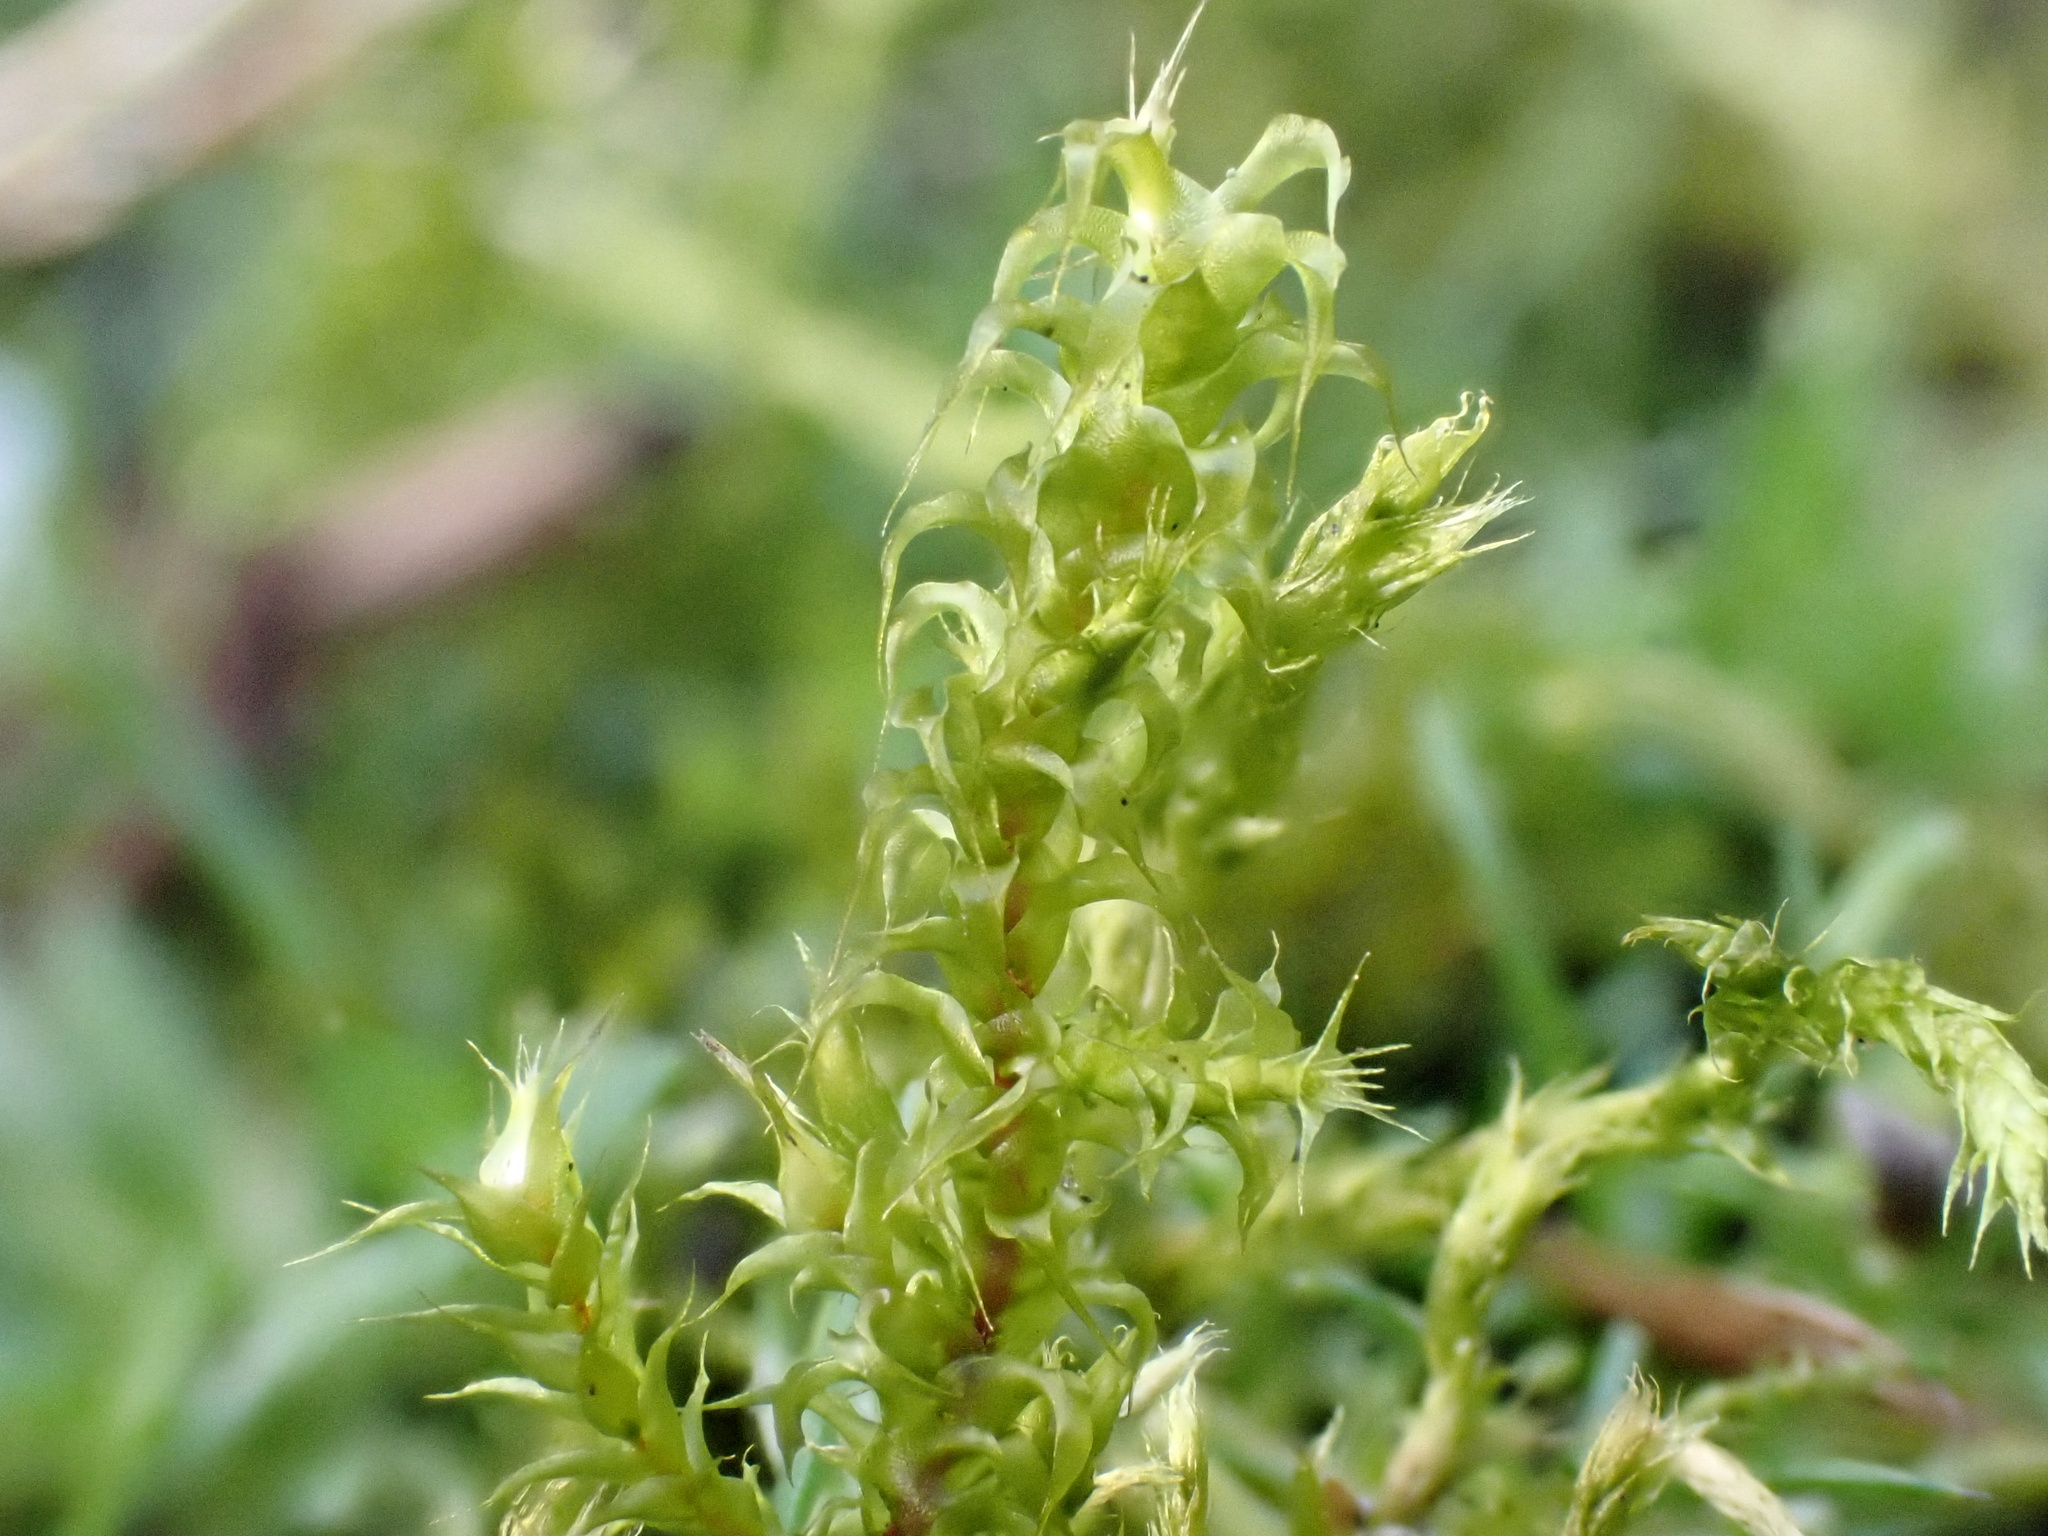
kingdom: Plantae
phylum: Bryophyta
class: Bryopsida
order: Hypnales
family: Hylocomiaceae
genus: Rhytidiadelphus
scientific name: Rhytidiadelphus squarrosus
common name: Springy turf-moss
